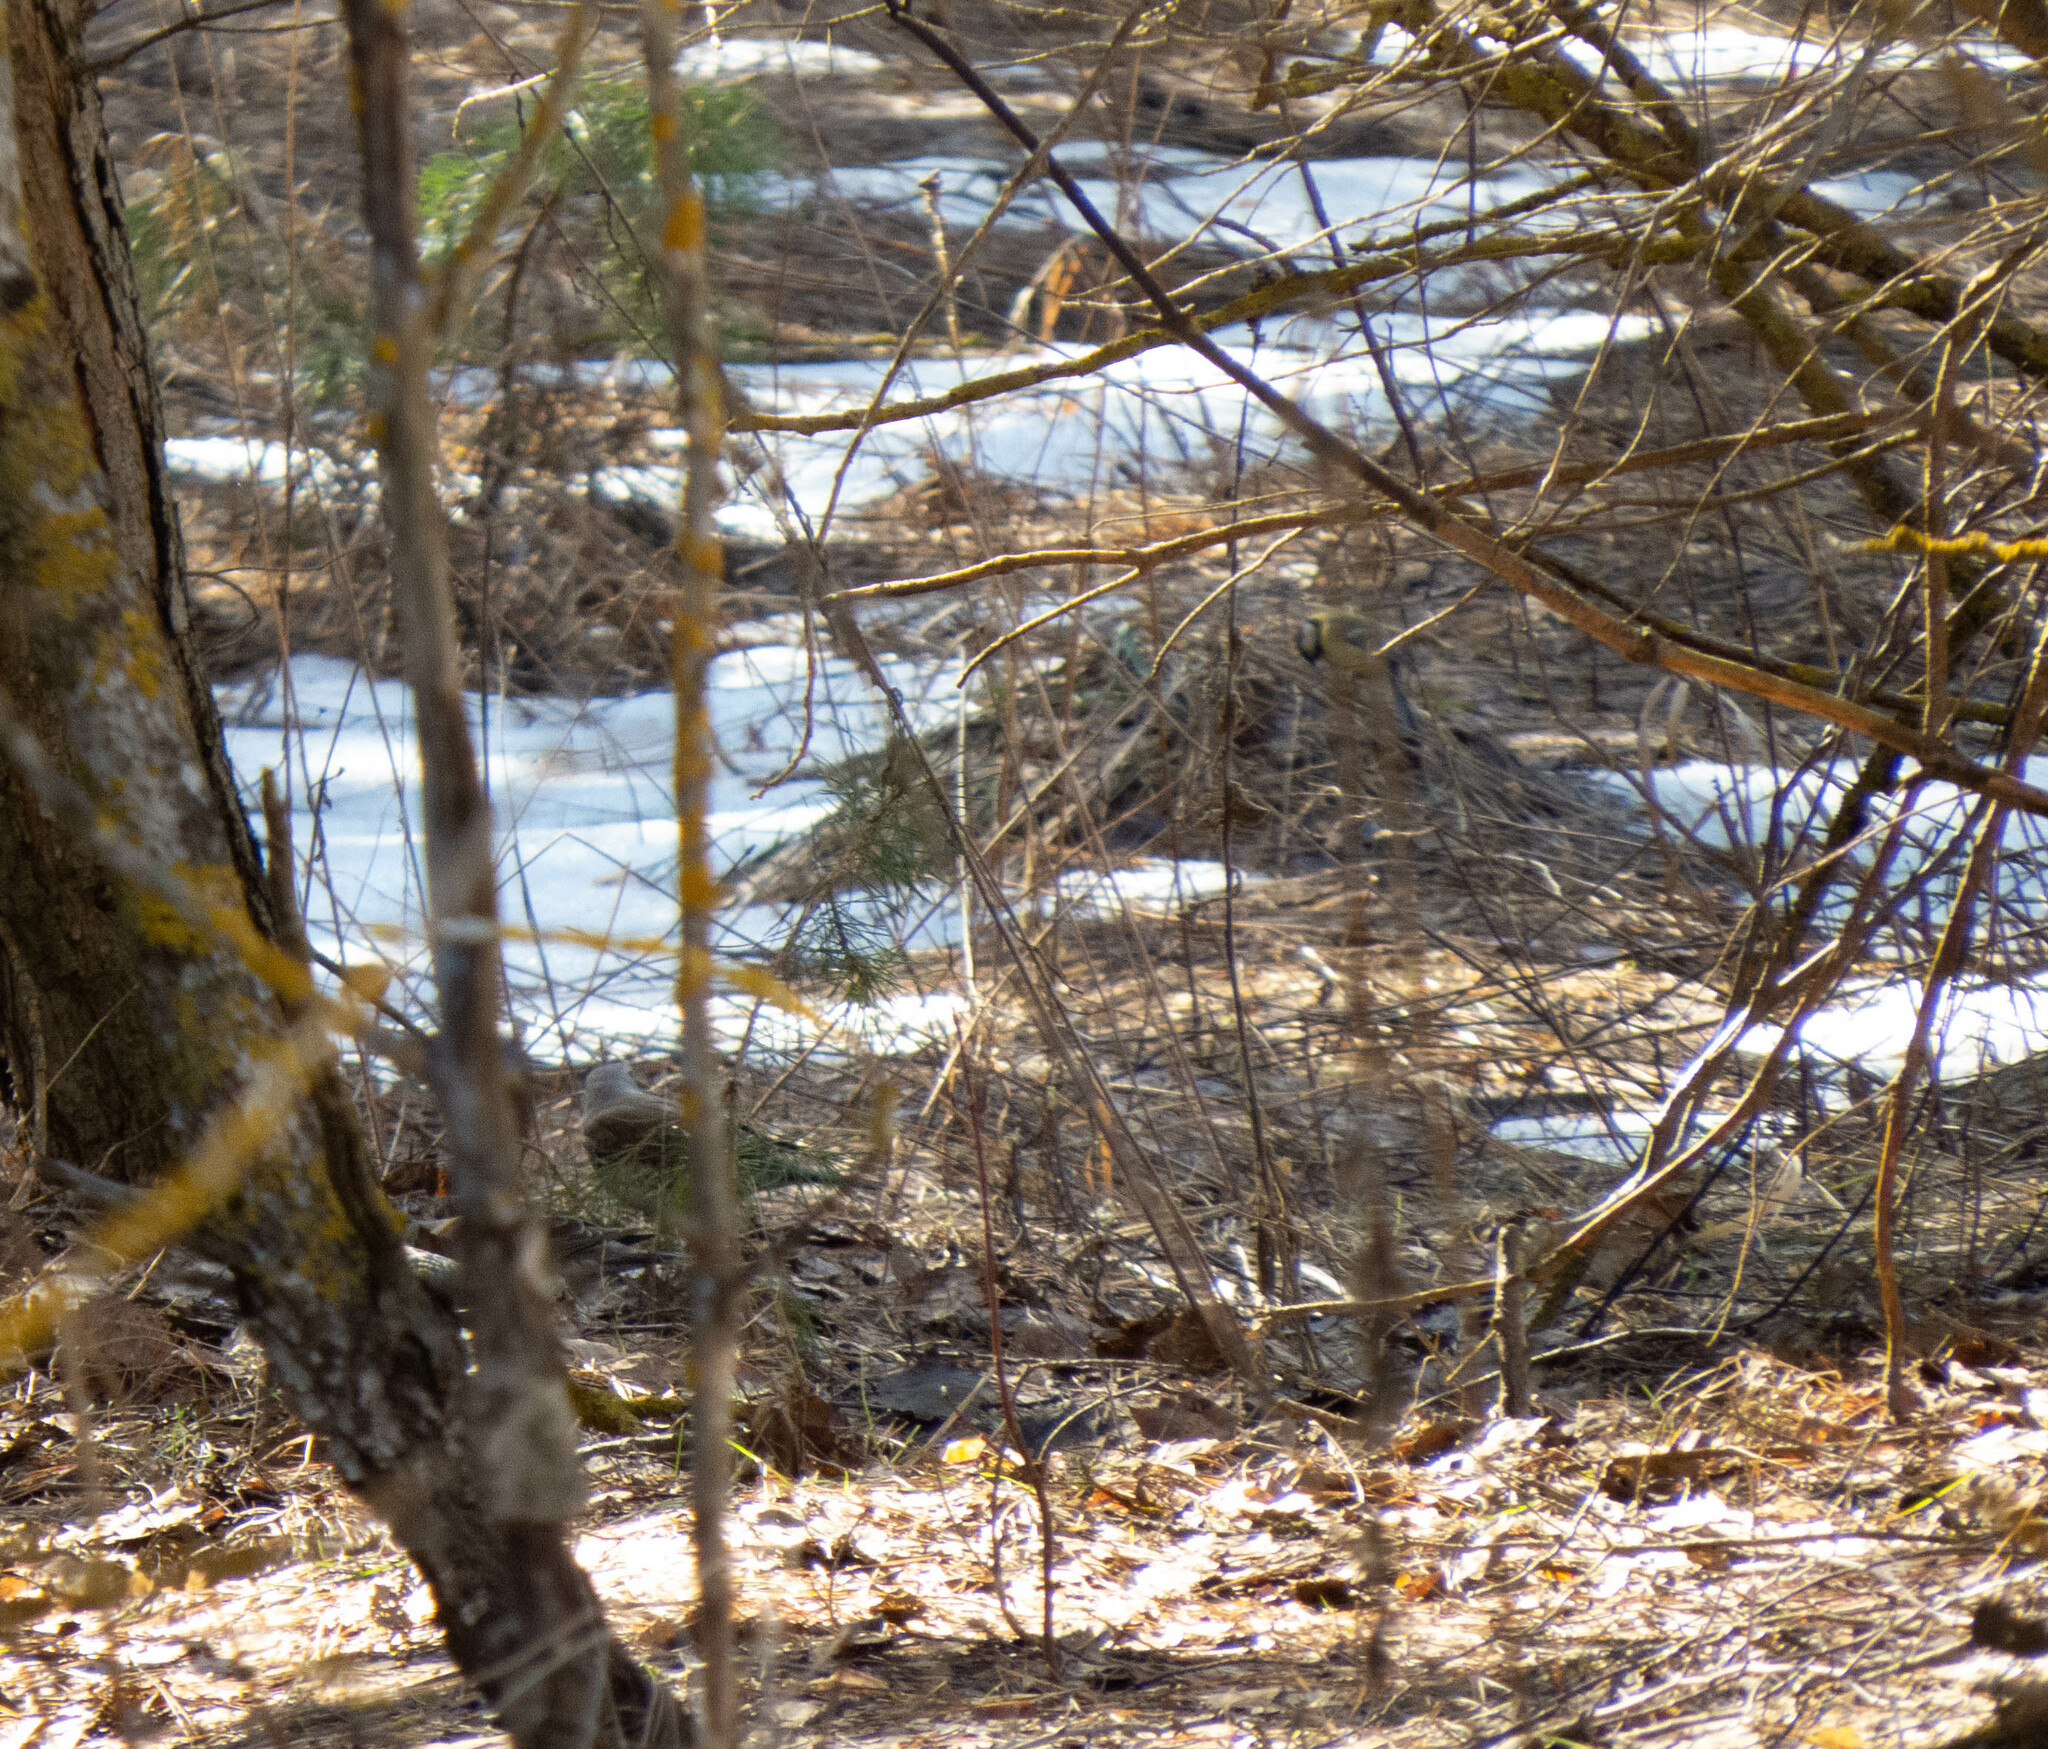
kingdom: Animalia
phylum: Chordata
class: Aves
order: Passeriformes
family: Turdidae
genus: Turdus
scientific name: Turdus pilaris
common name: Fieldfare
